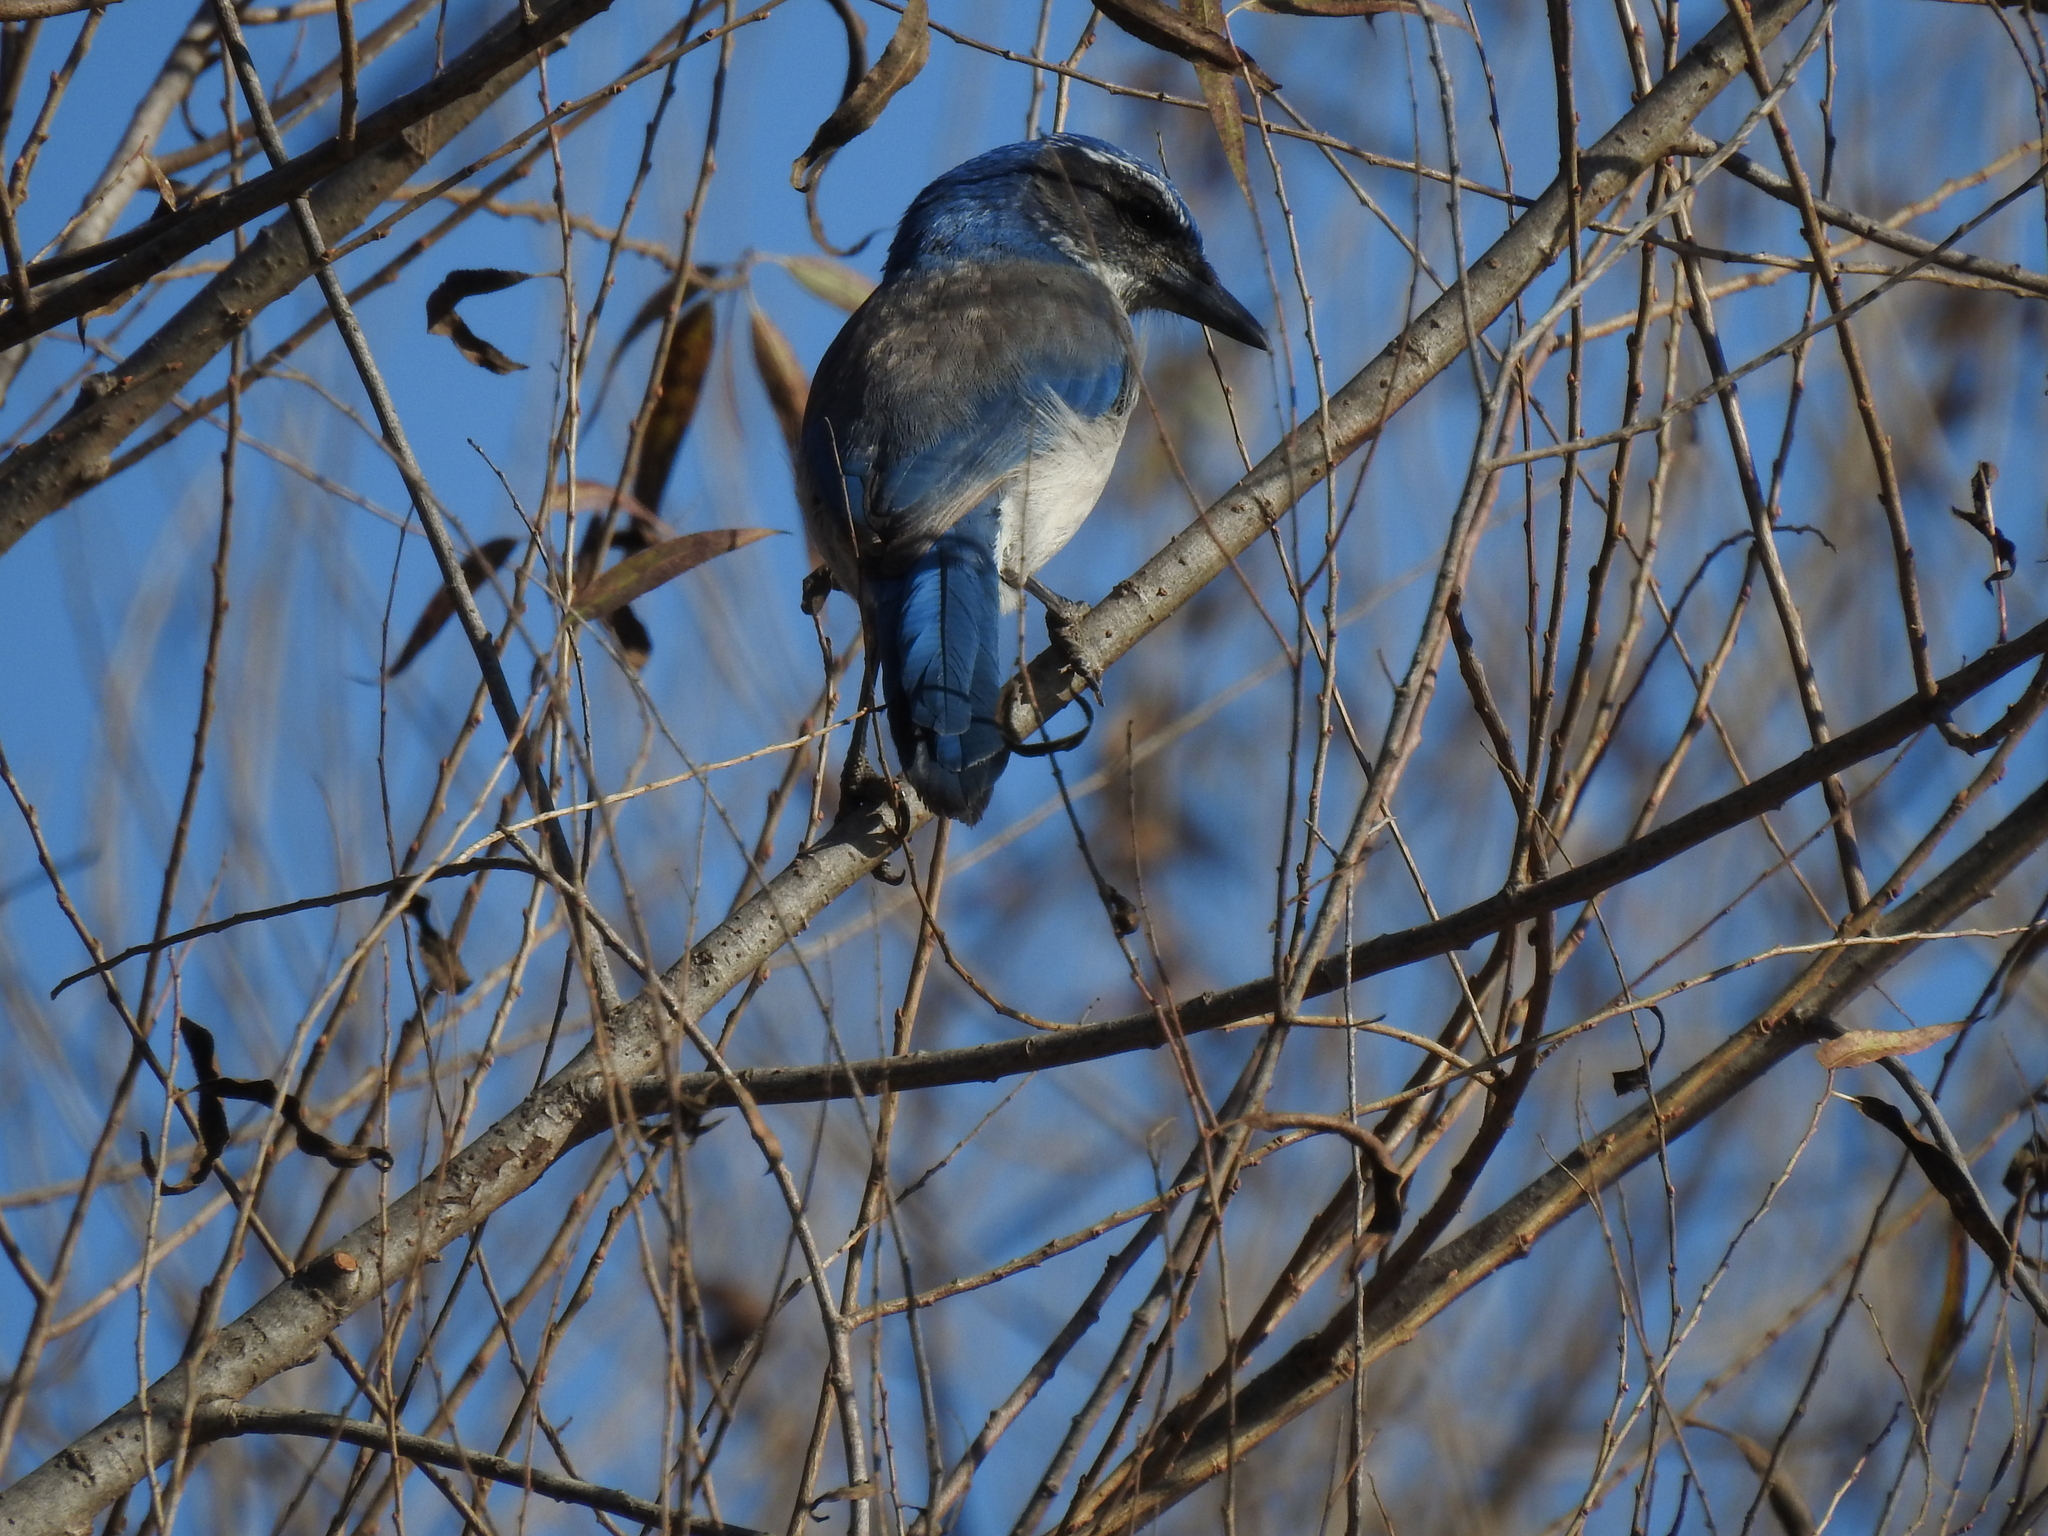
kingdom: Animalia
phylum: Chordata
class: Aves
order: Passeriformes
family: Corvidae
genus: Aphelocoma
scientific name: Aphelocoma californica
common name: California scrub-jay
